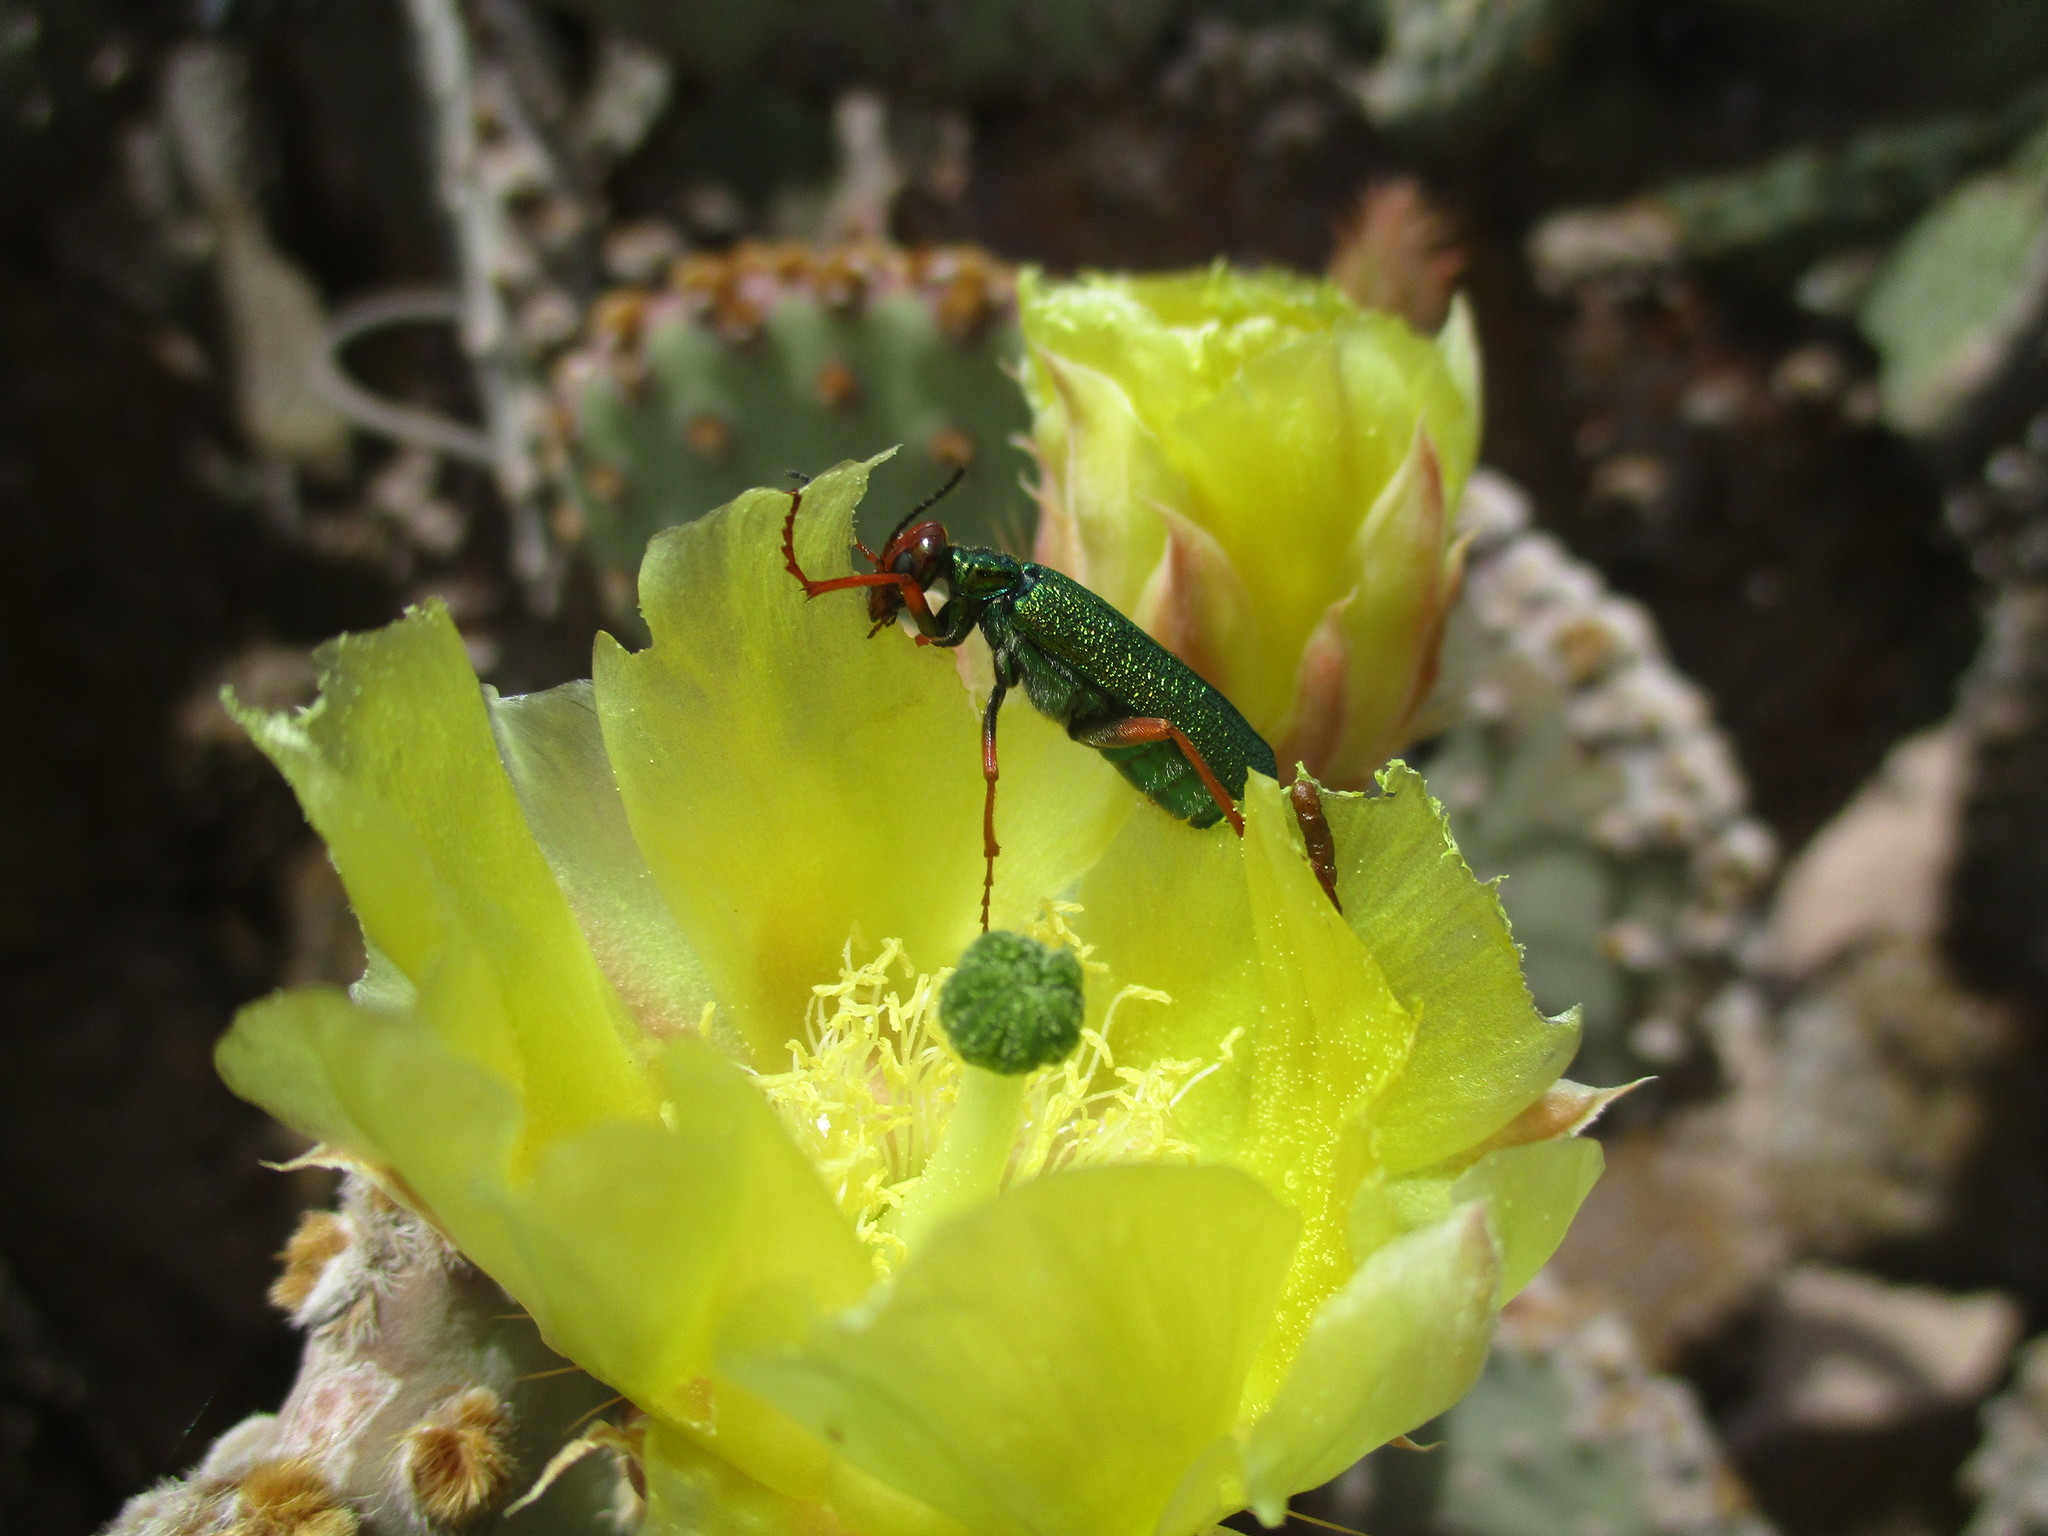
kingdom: Animalia
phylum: Arthropoda
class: Insecta
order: Coleoptera
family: Meloidae
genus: Eupompha
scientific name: Eupompha fissiceps
